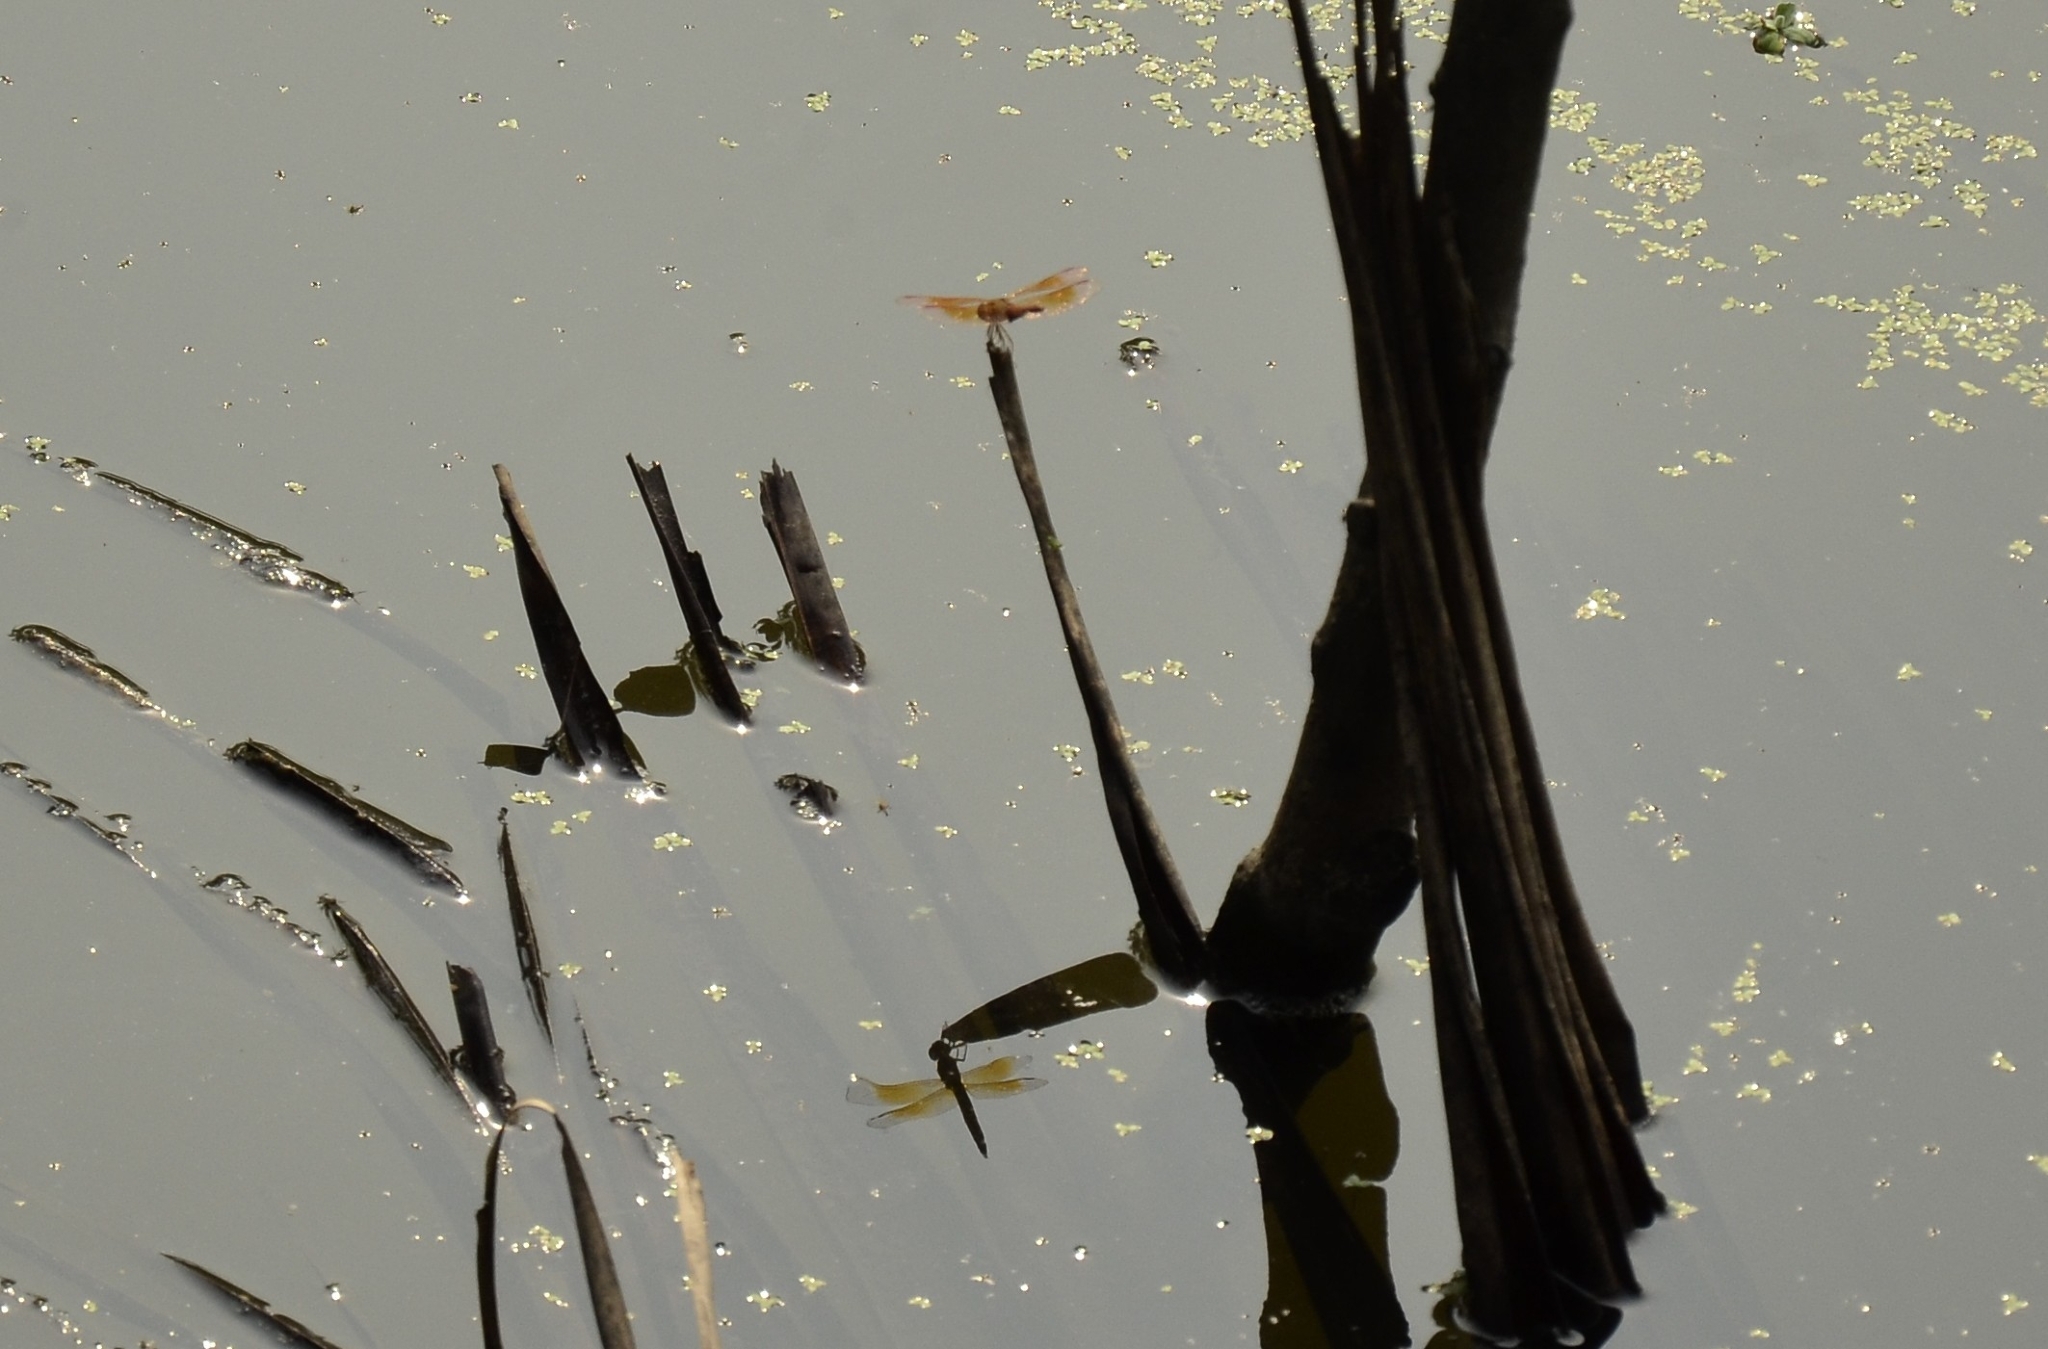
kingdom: Animalia
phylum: Arthropoda
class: Insecta
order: Odonata
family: Libellulidae
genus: Brachythemis
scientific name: Brachythemis contaminata
